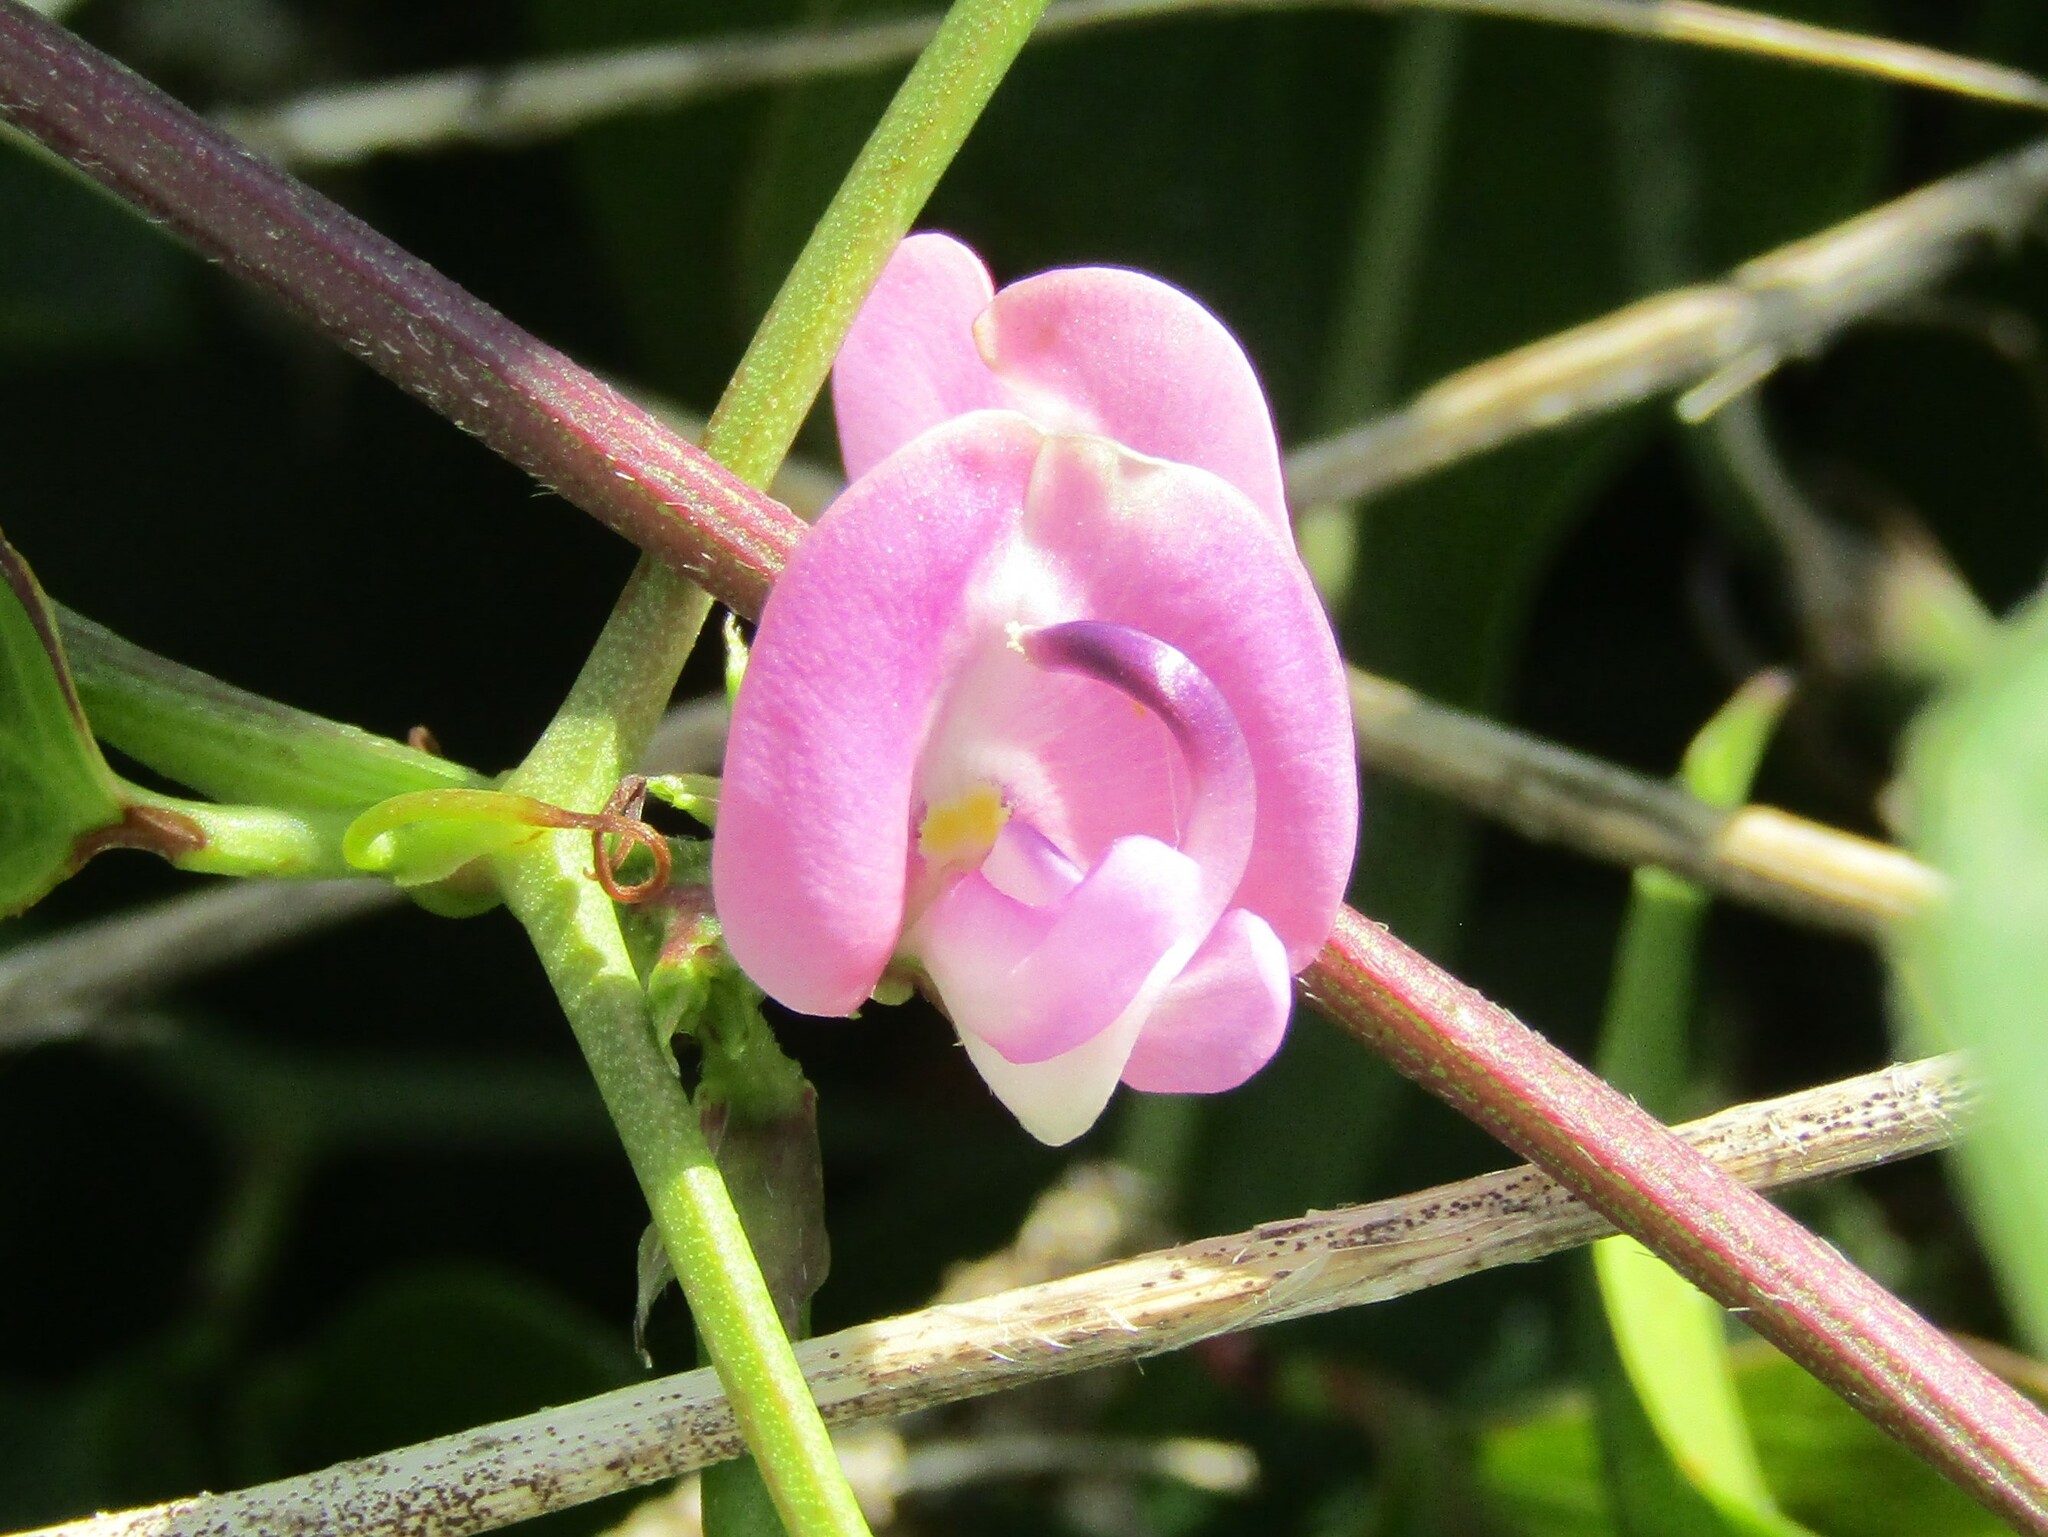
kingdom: Plantae
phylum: Tracheophyta
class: Magnoliopsida
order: Fabales
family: Fabaceae
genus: Strophostyles
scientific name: Strophostyles helvola
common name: Trailing wild bean
